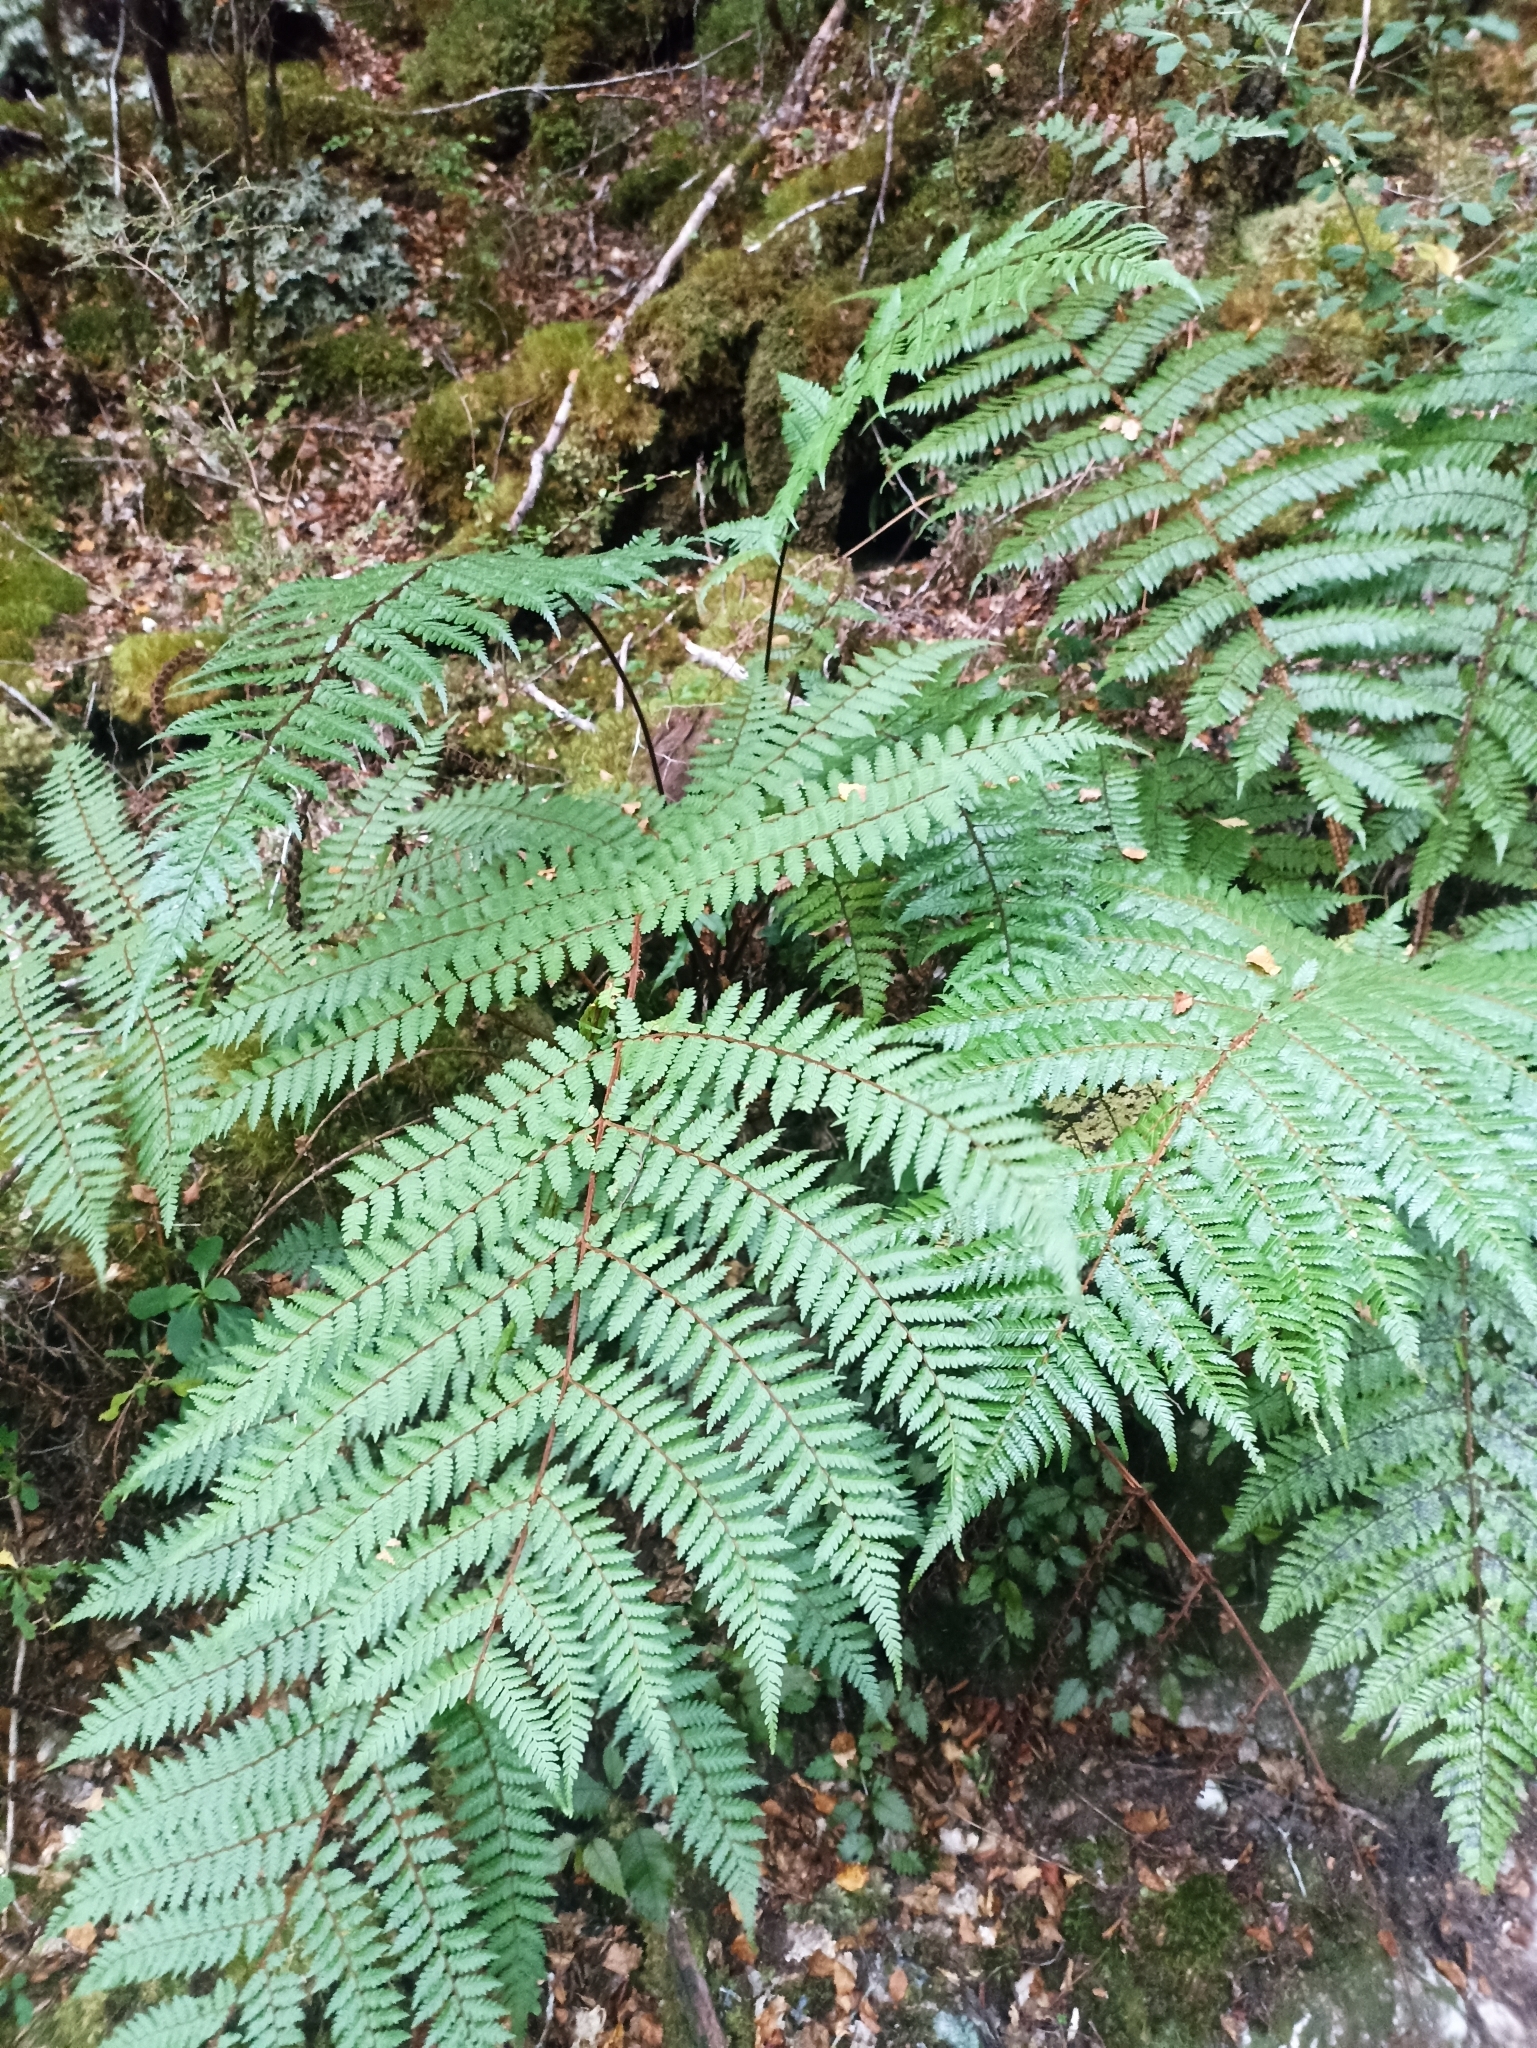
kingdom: Plantae
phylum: Tracheophyta
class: Polypodiopsida
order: Cyatheales
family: Cyatheaceae
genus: Alsophila
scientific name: Alsophila colensoi
